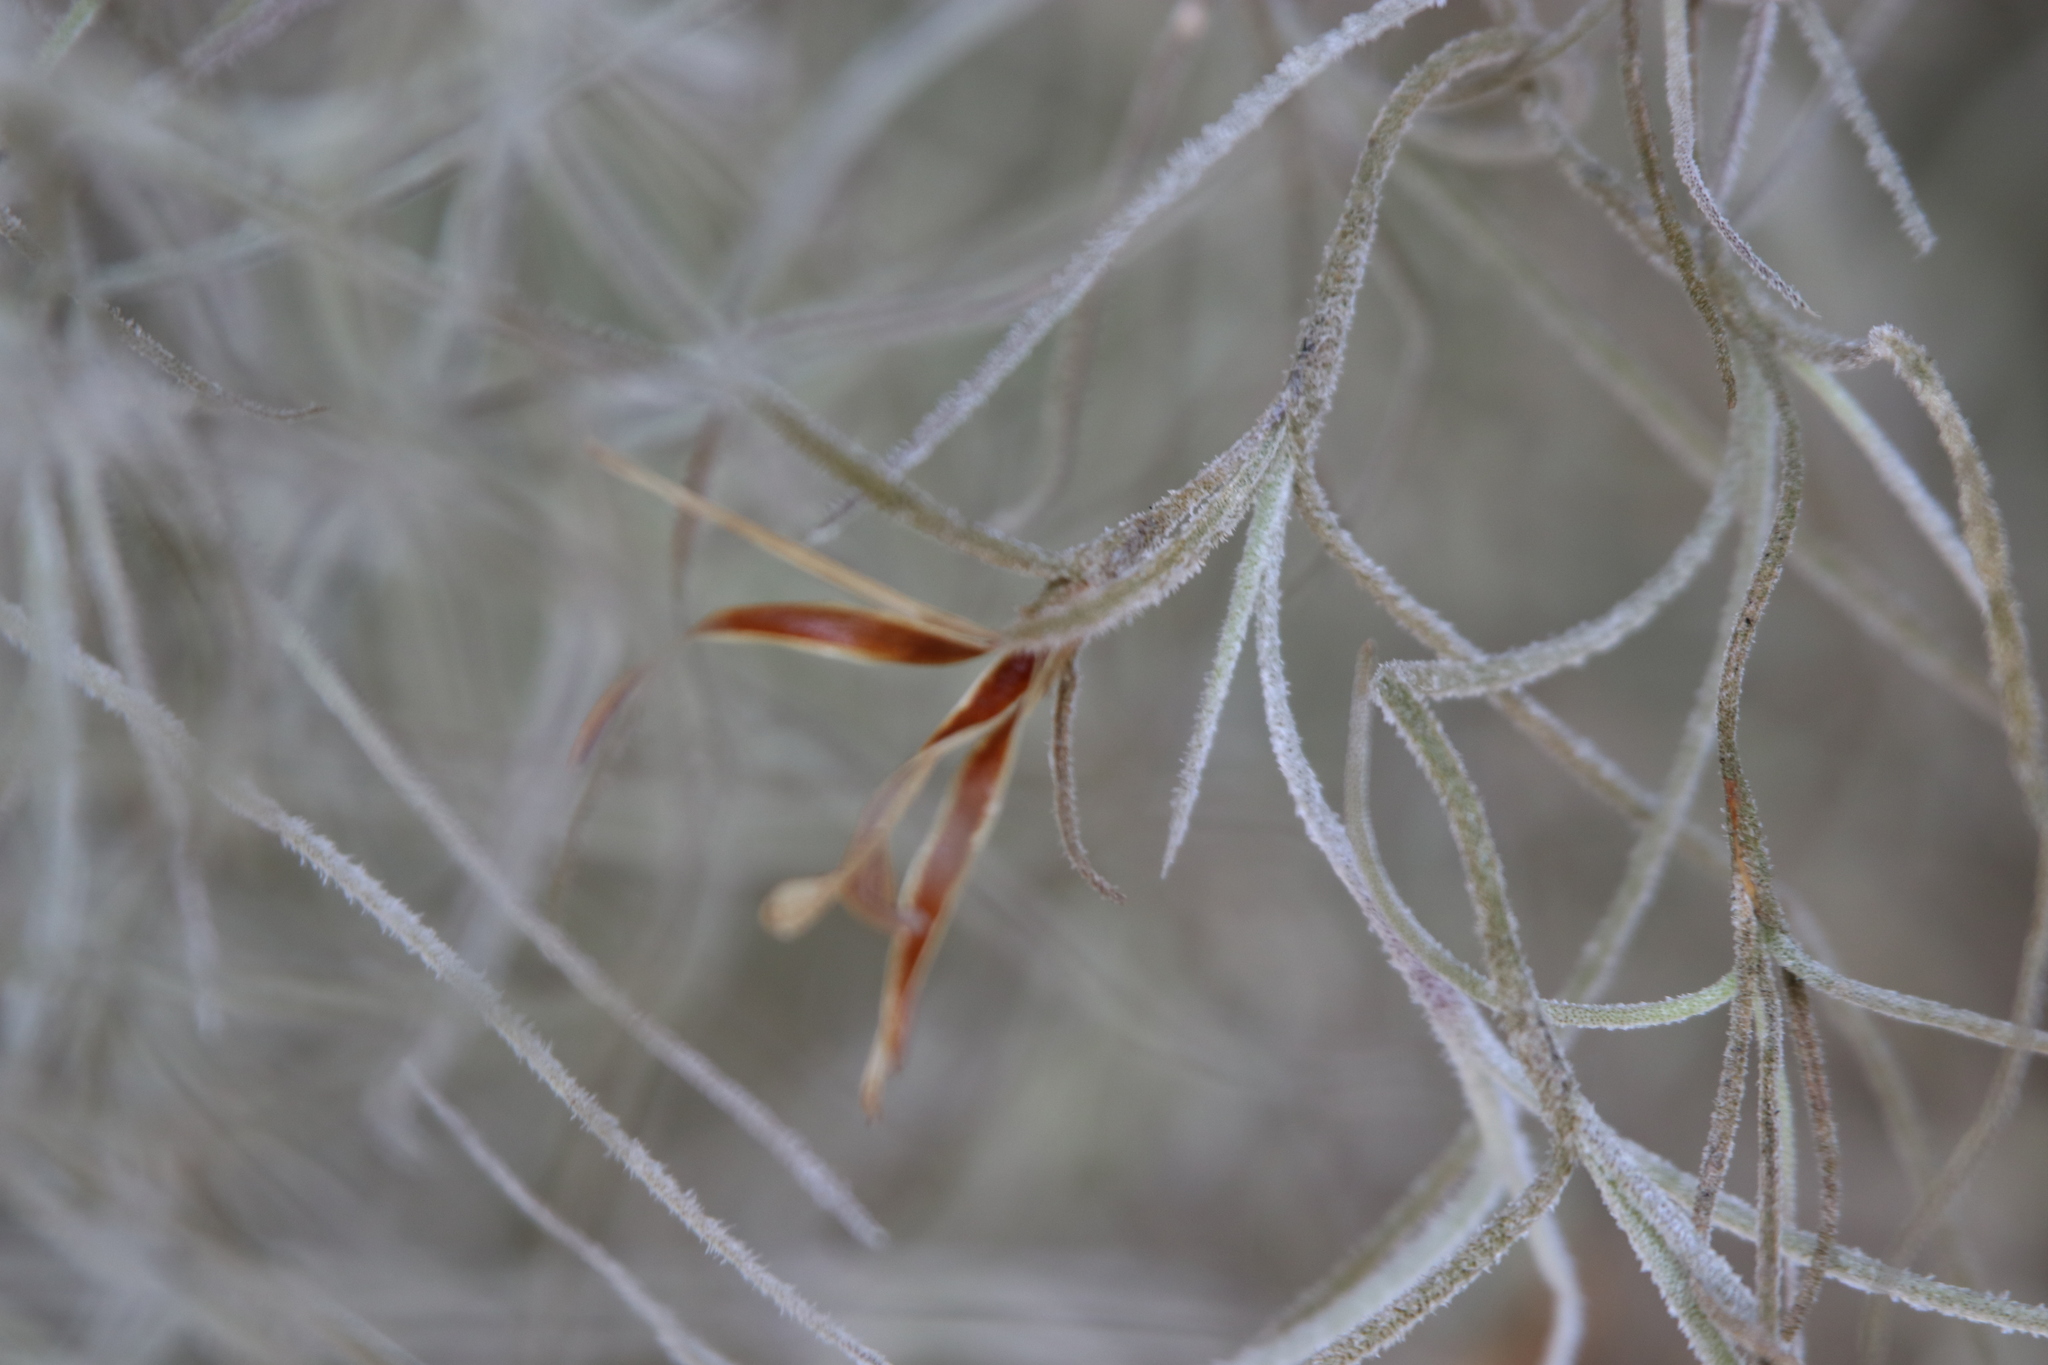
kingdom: Plantae
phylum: Tracheophyta
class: Liliopsida
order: Poales
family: Bromeliaceae
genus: Tillandsia
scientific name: Tillandsia usneoides
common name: Spanish moss
